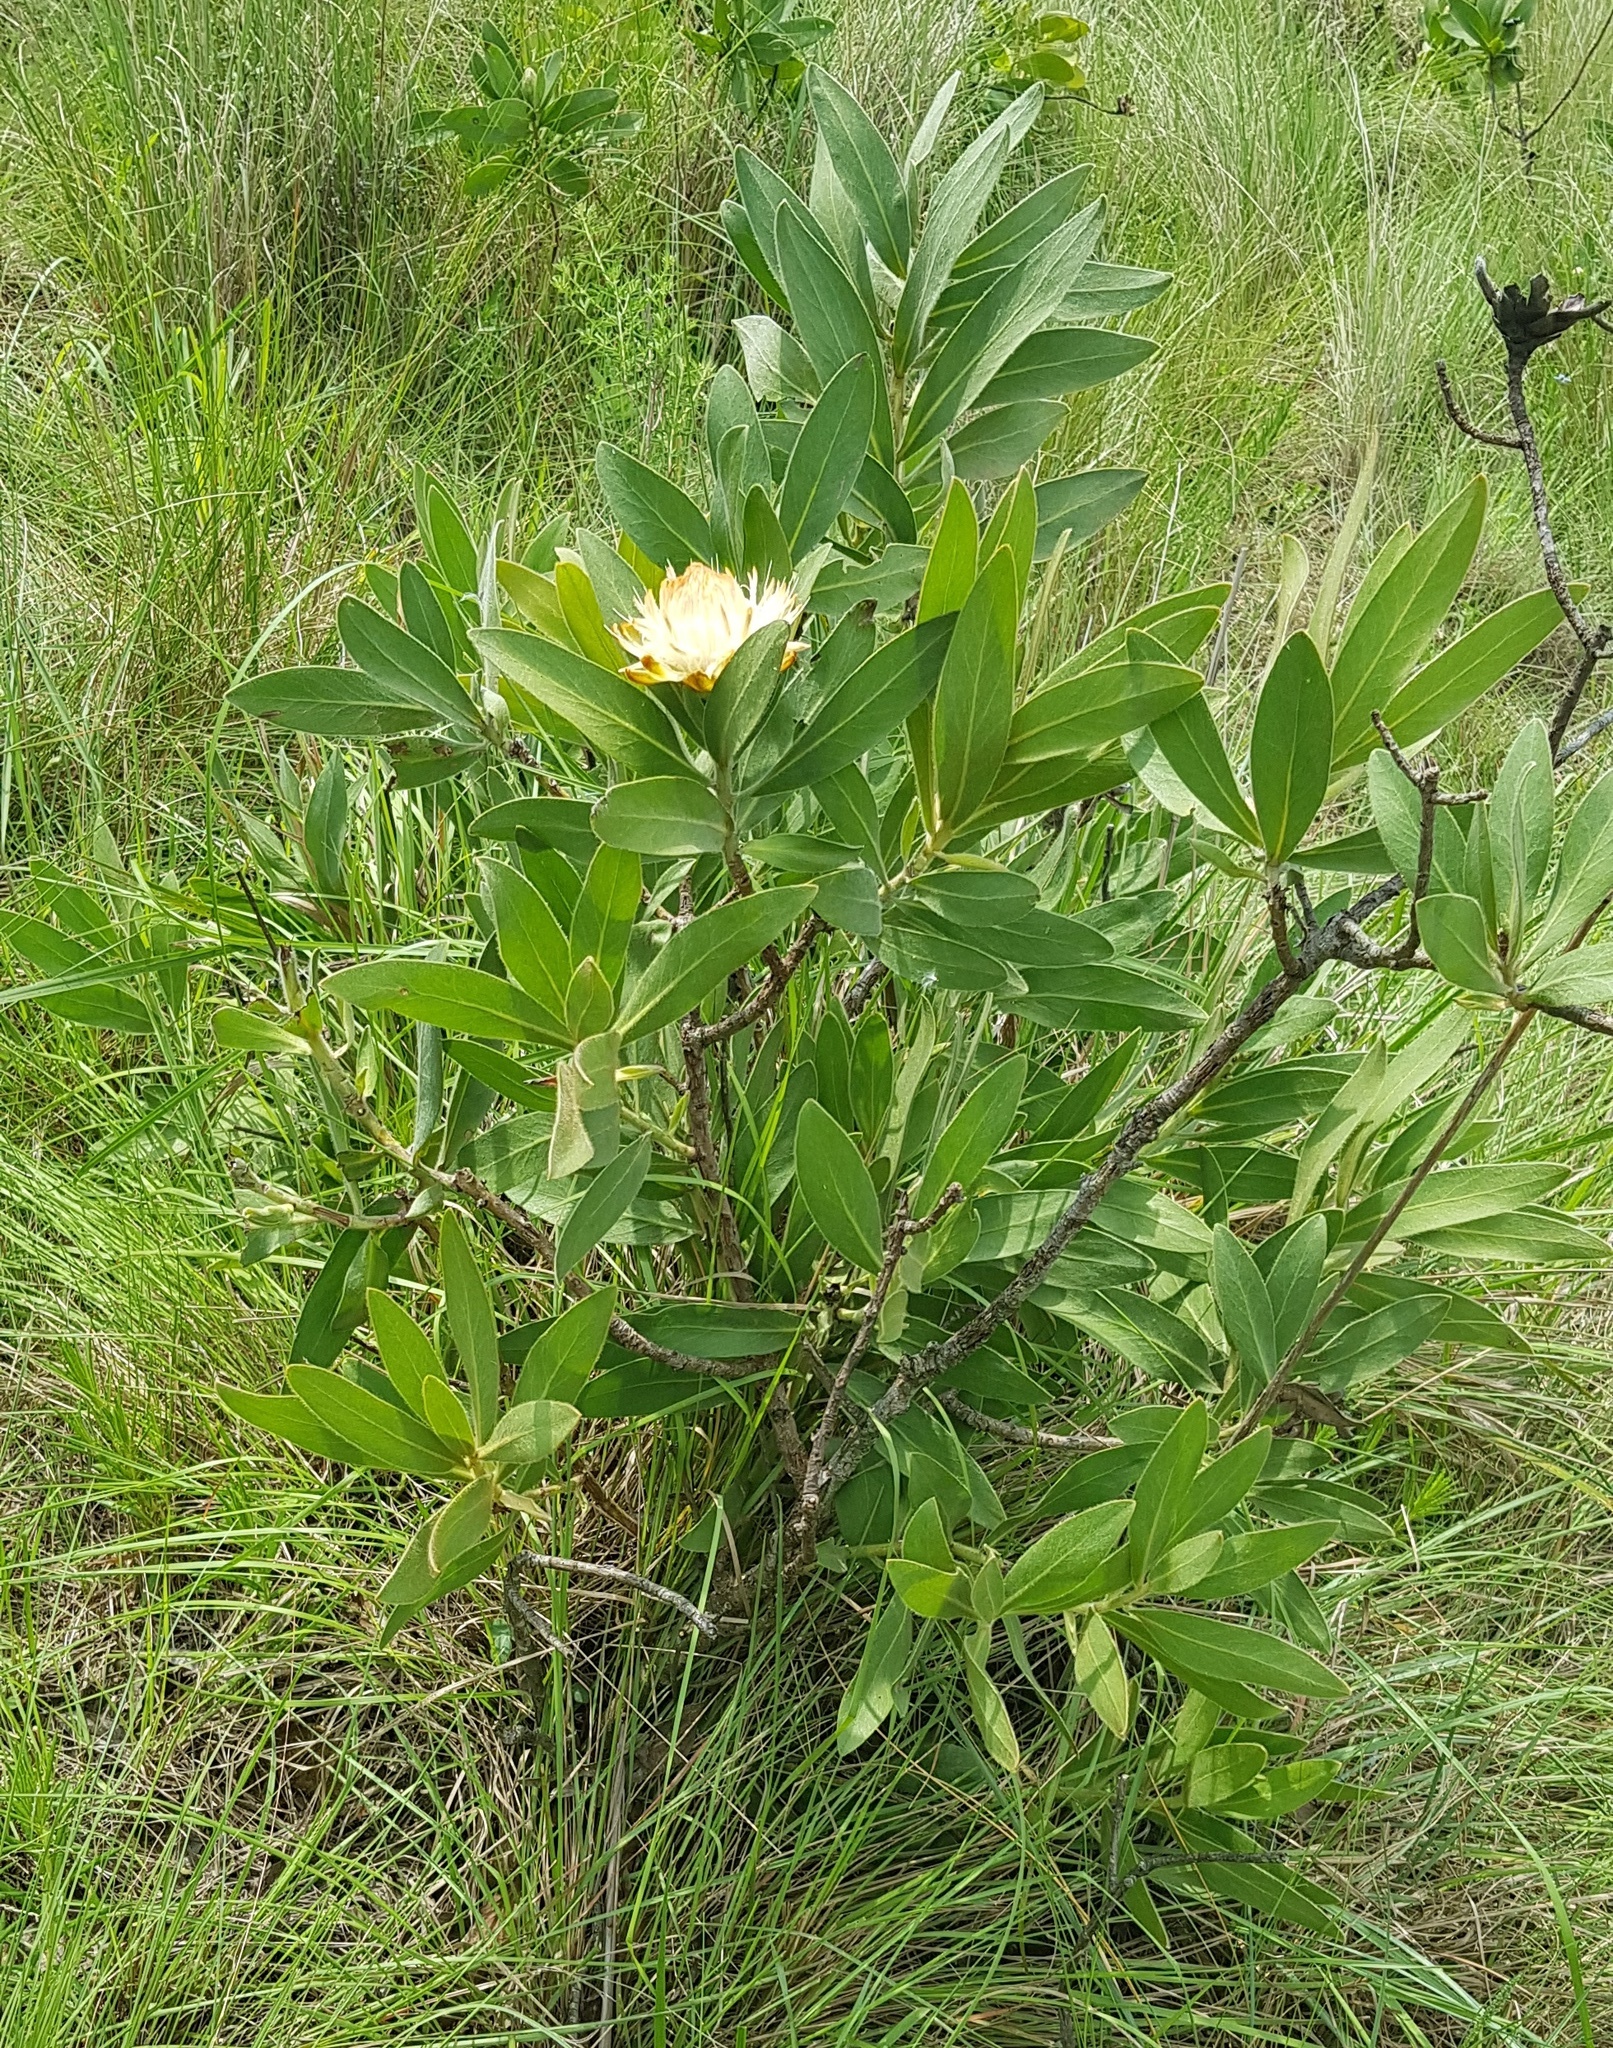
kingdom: Plantae
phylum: Tracheophyta
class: Magnoliopsida
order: Proteales
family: Proteaceae
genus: Protea
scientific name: Protea welwitschii
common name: Cluster-head protea
